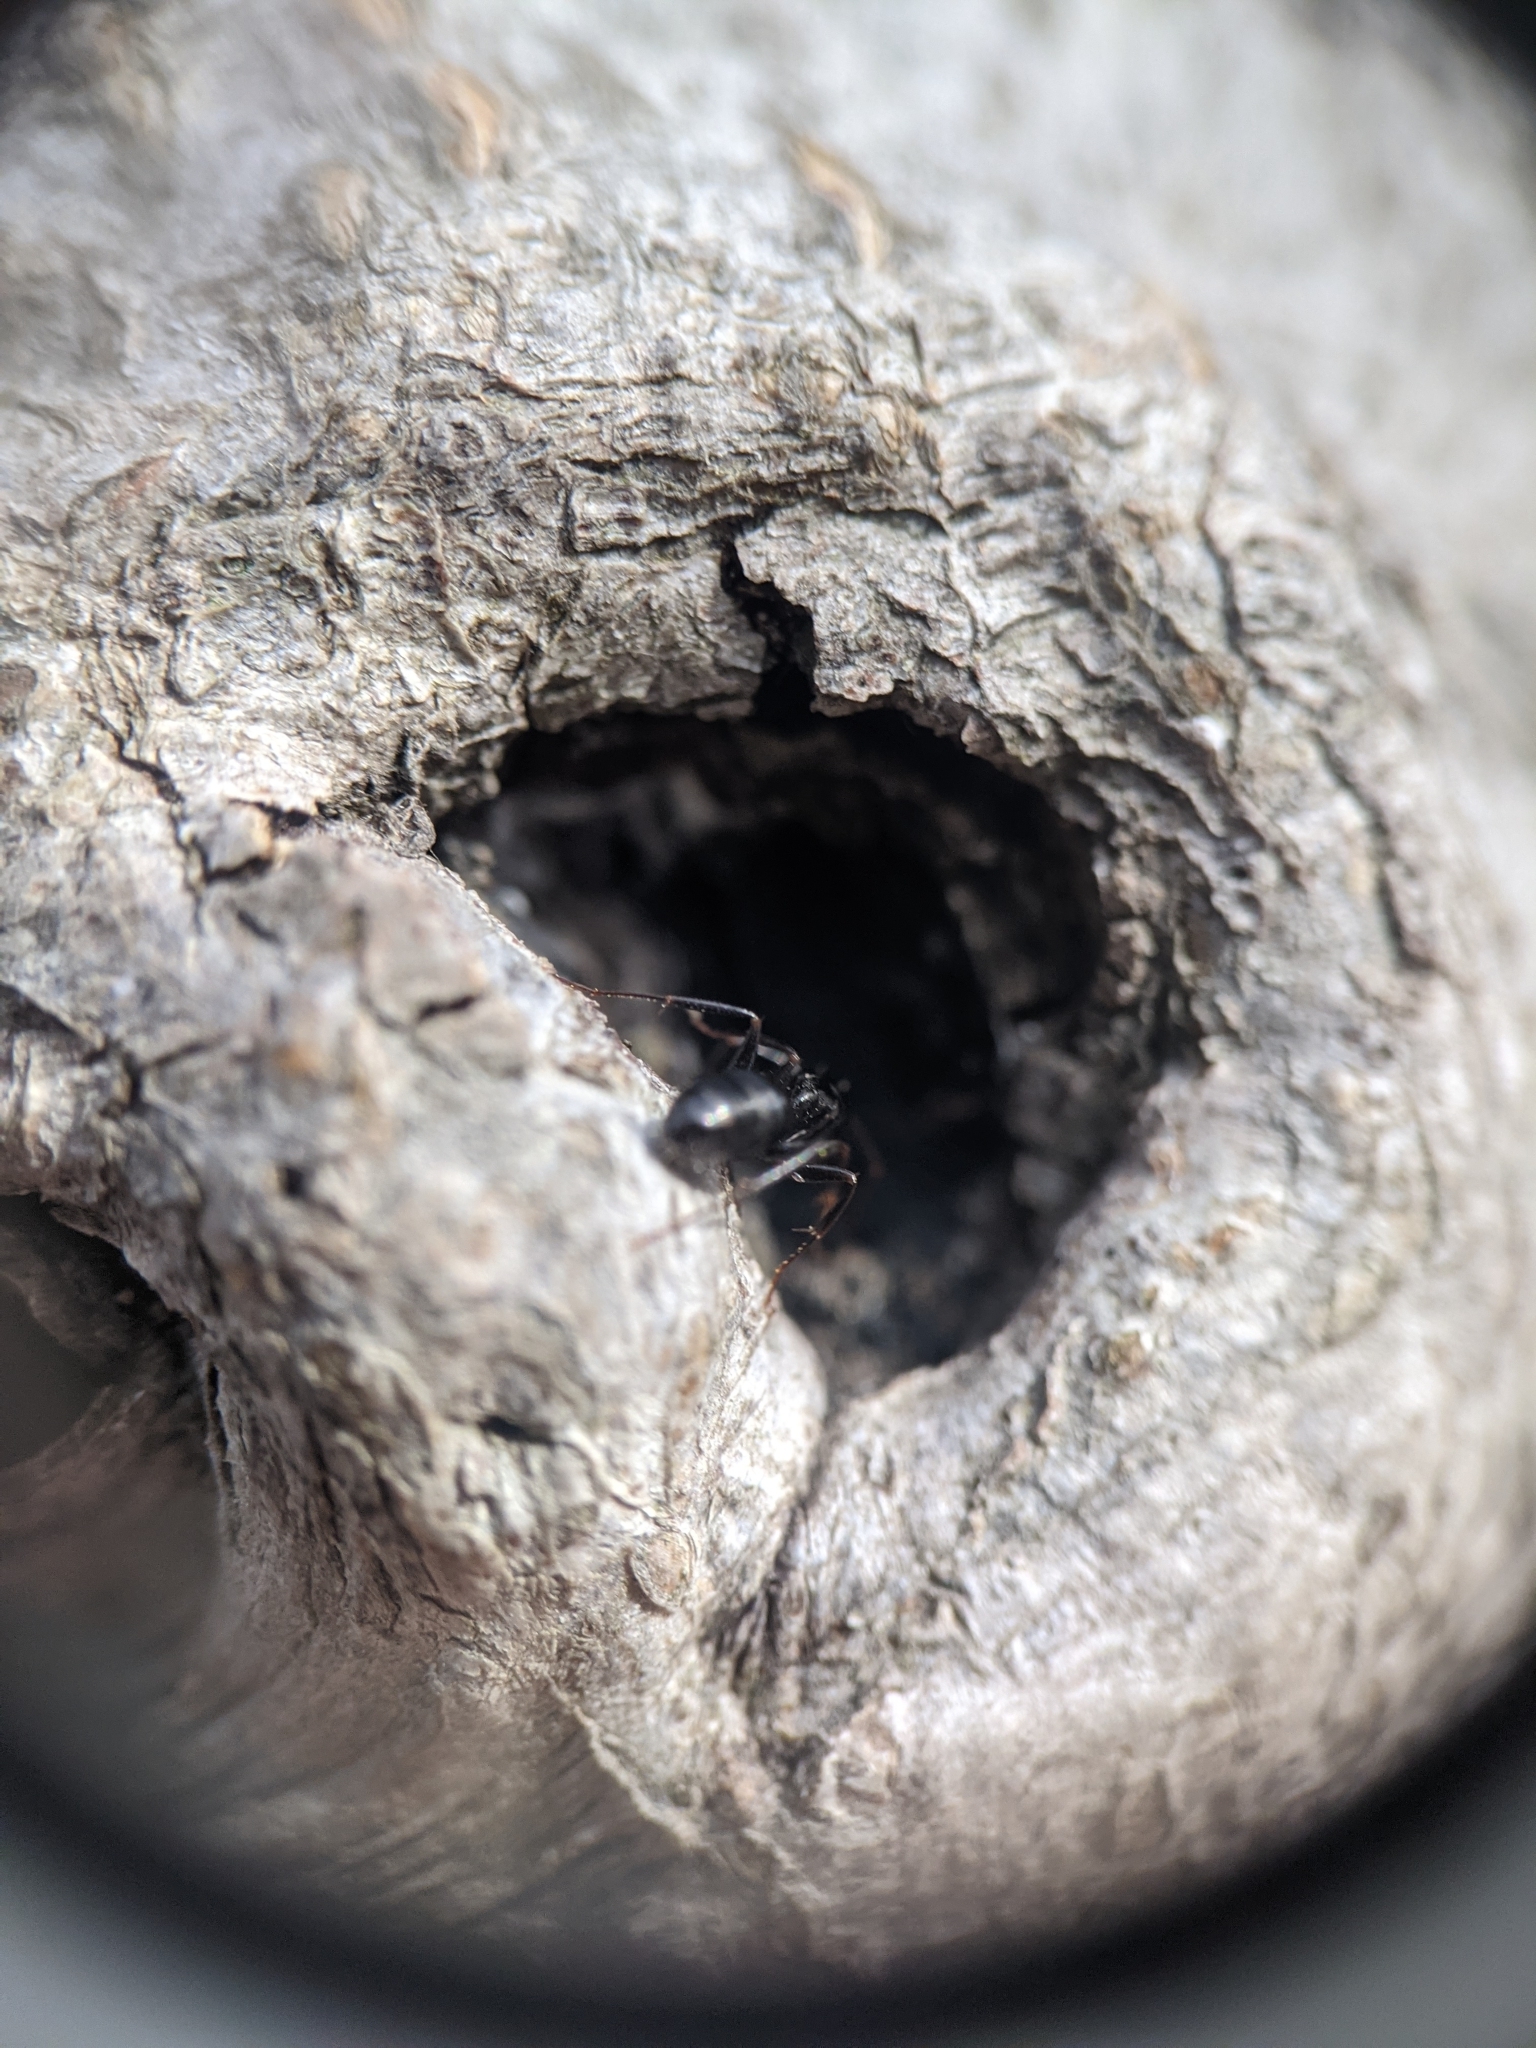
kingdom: Animalia
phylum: Arthropoda
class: Insecta
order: Hymenoptera
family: Formicidae
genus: Camponotus
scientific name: Camponotus nearcticus
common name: Smaller carpenter ant
